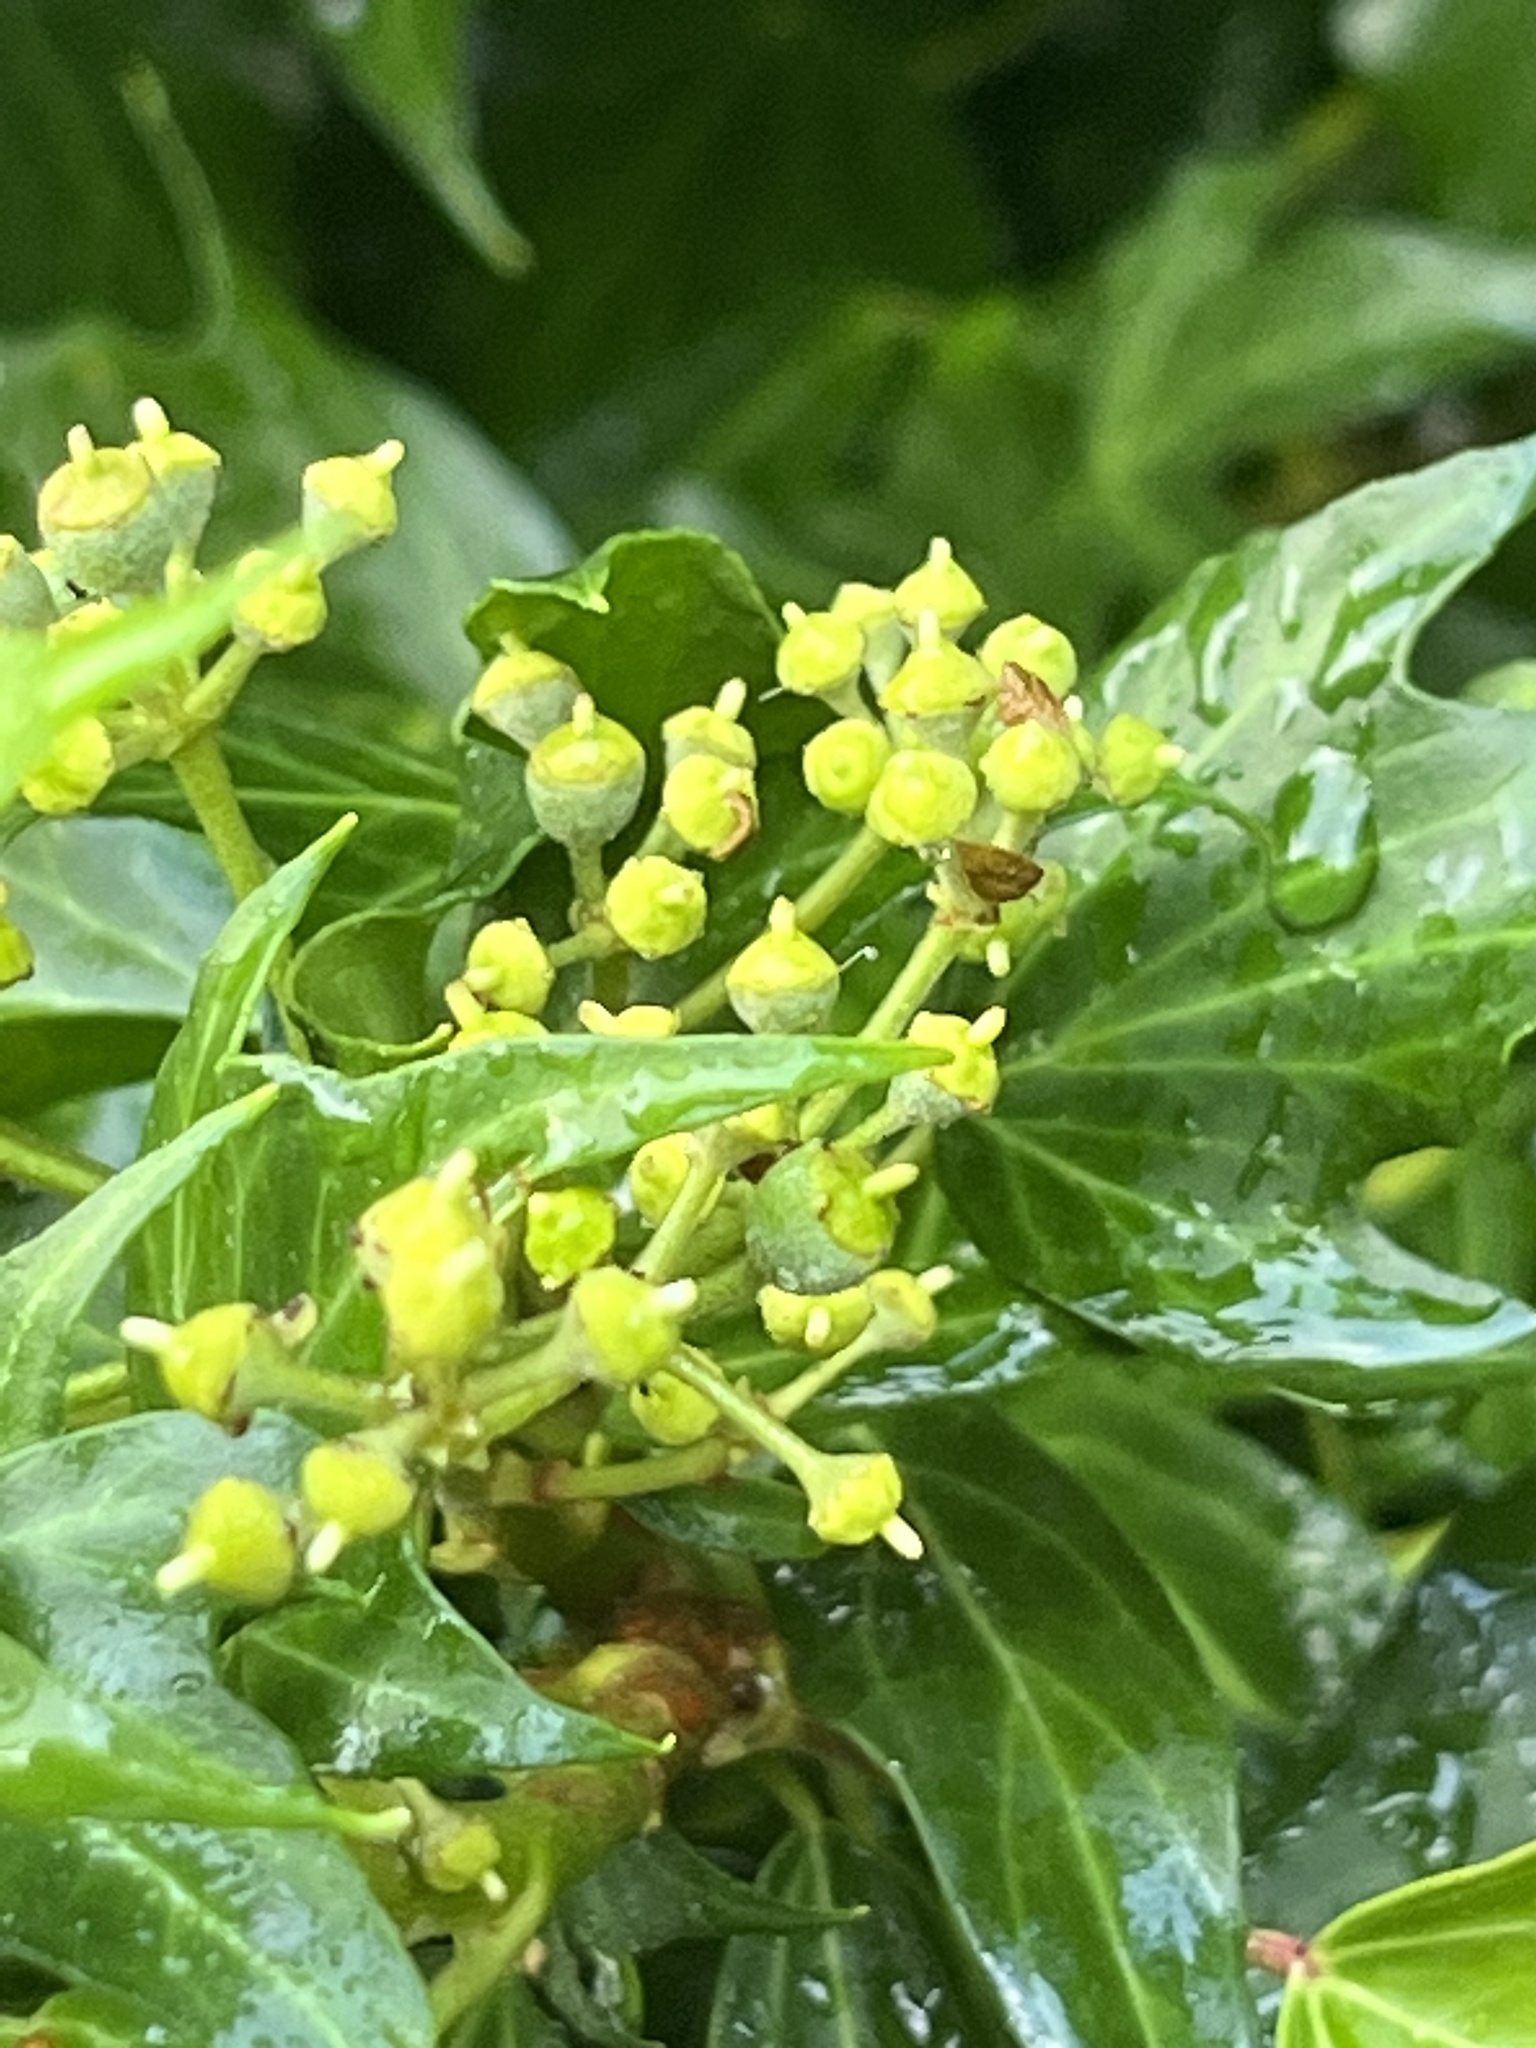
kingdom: Plantae
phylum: Tracheophyta
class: Magnoliopsida
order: Apiales
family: Araliaceae
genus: Hedera
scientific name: Hedera helix
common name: Ivy
